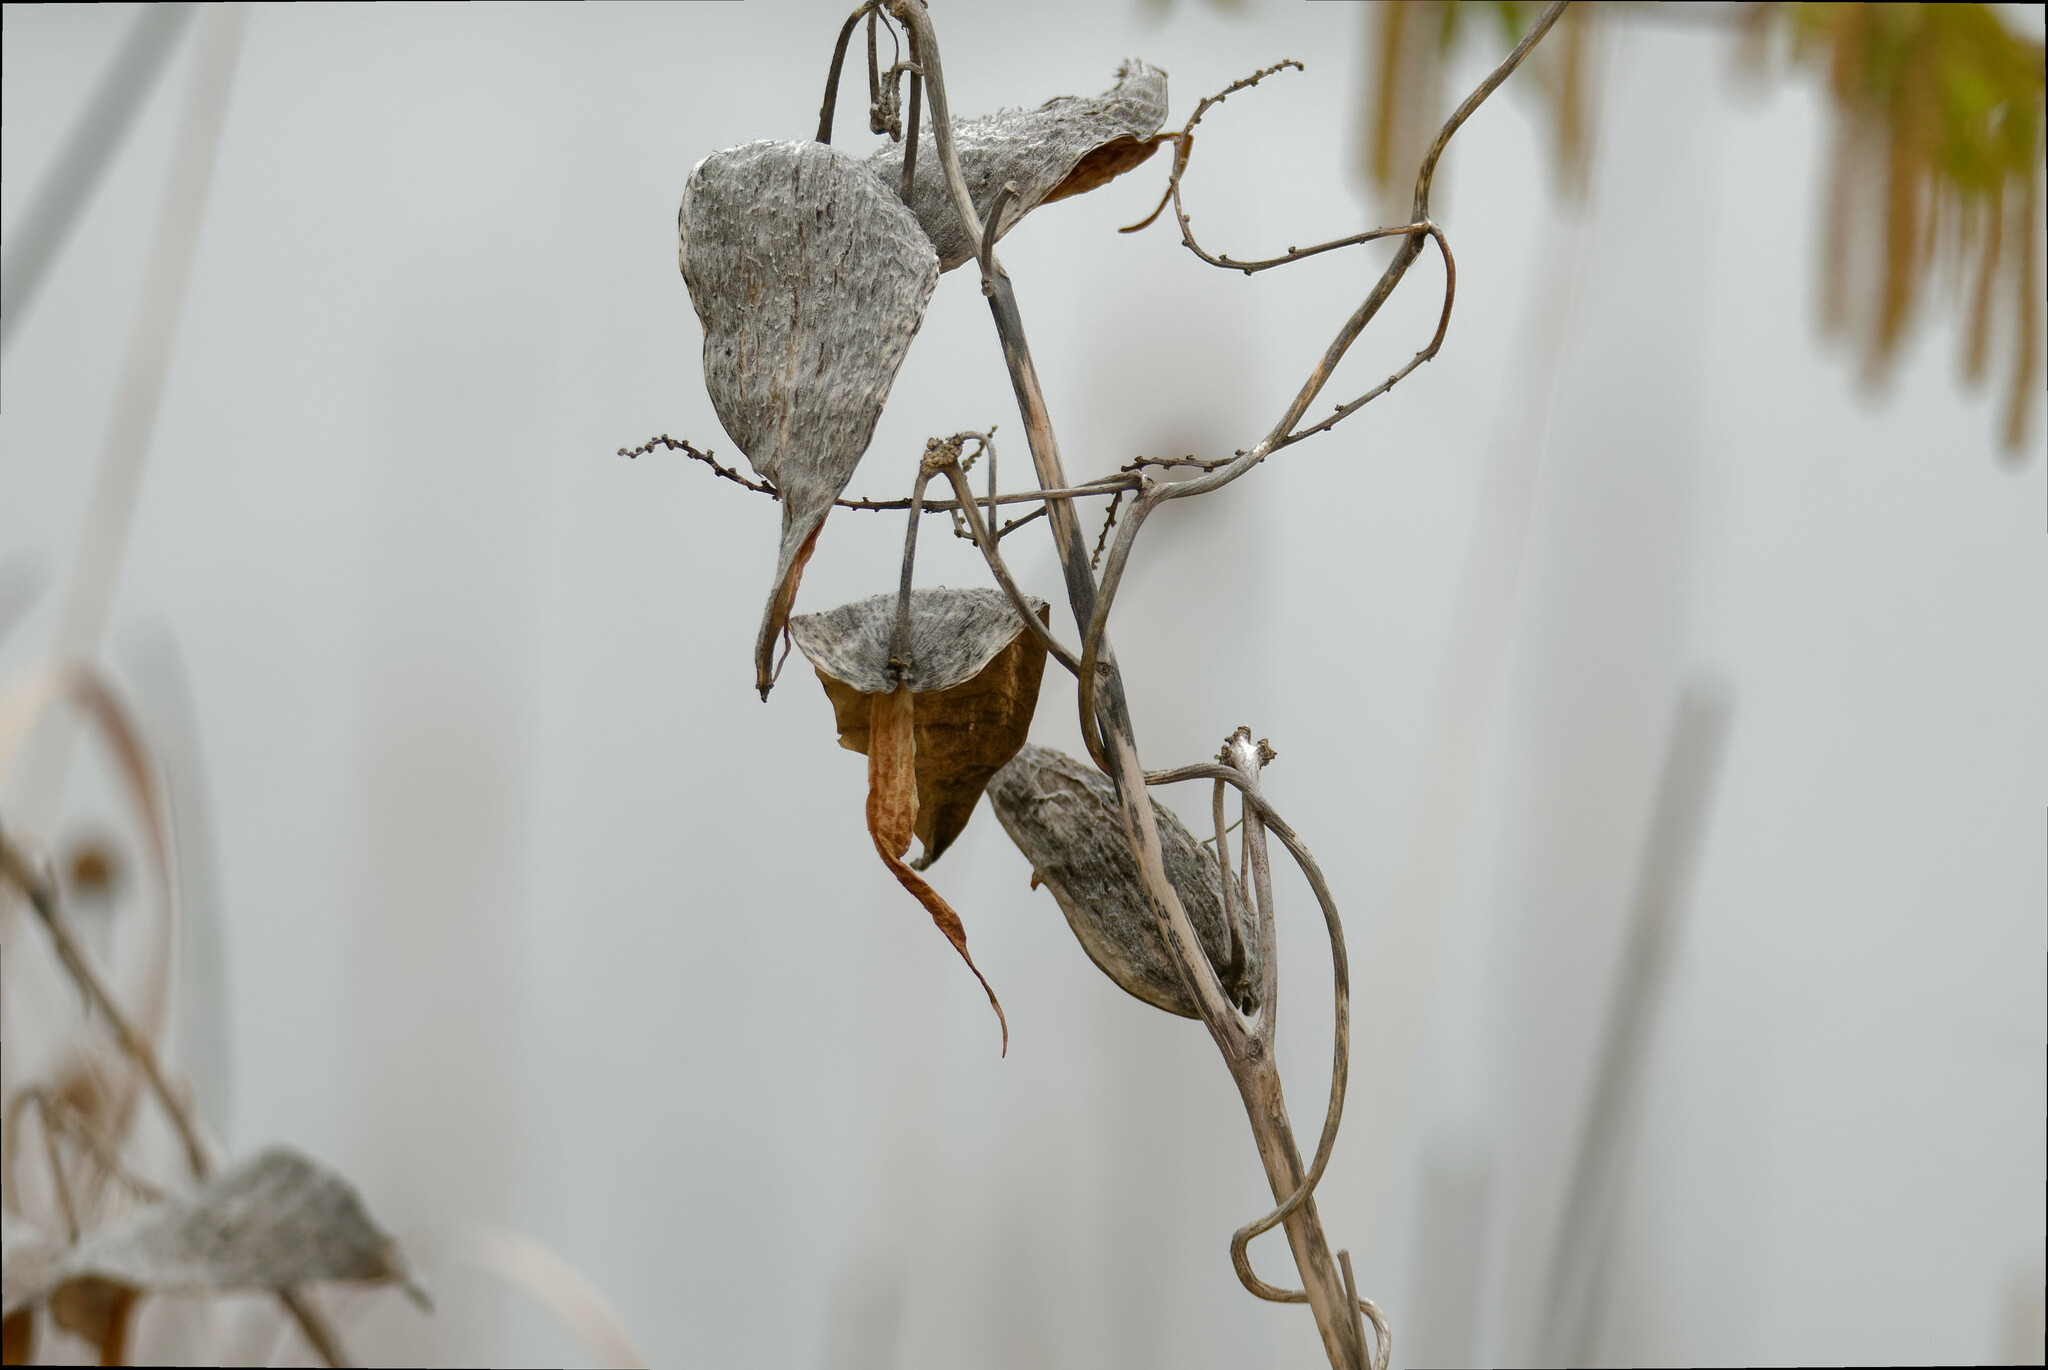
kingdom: Plantae
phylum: Tracheophyta
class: Magnoliopsida
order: Gentianales
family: Apocynaceae
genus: Asclepias
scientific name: Asclepias syriaca
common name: Common milkweed
